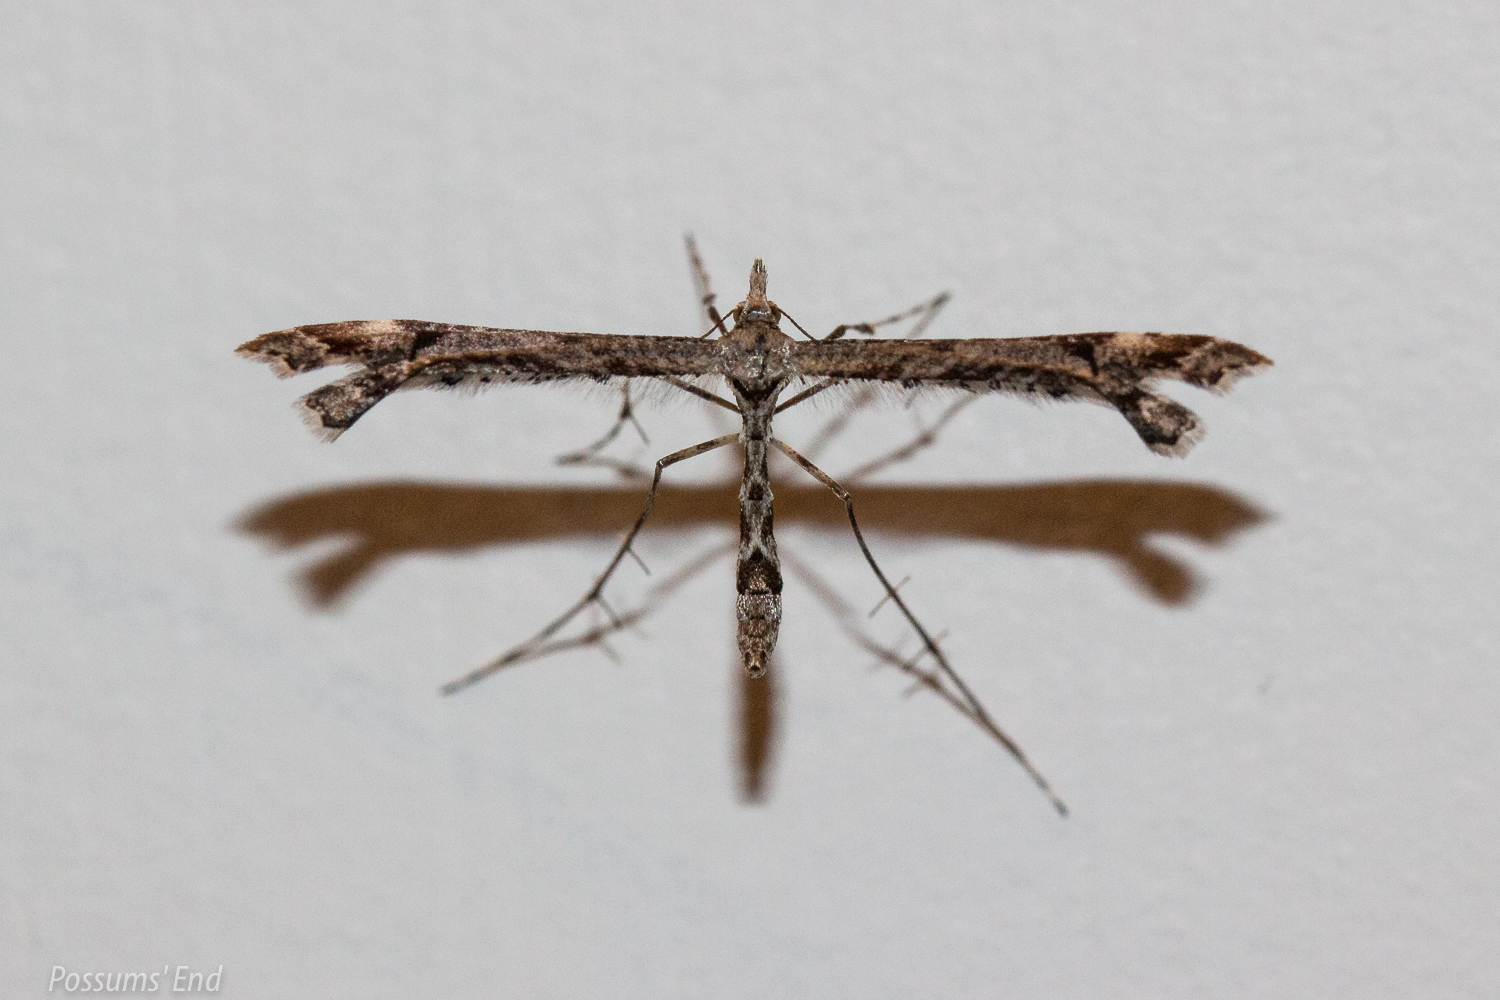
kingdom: Animalia
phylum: Arthropoda
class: Insecta
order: Lepidoptera
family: Pterophoridae
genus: Amblyptilia
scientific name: Amblyptilia repletalis
